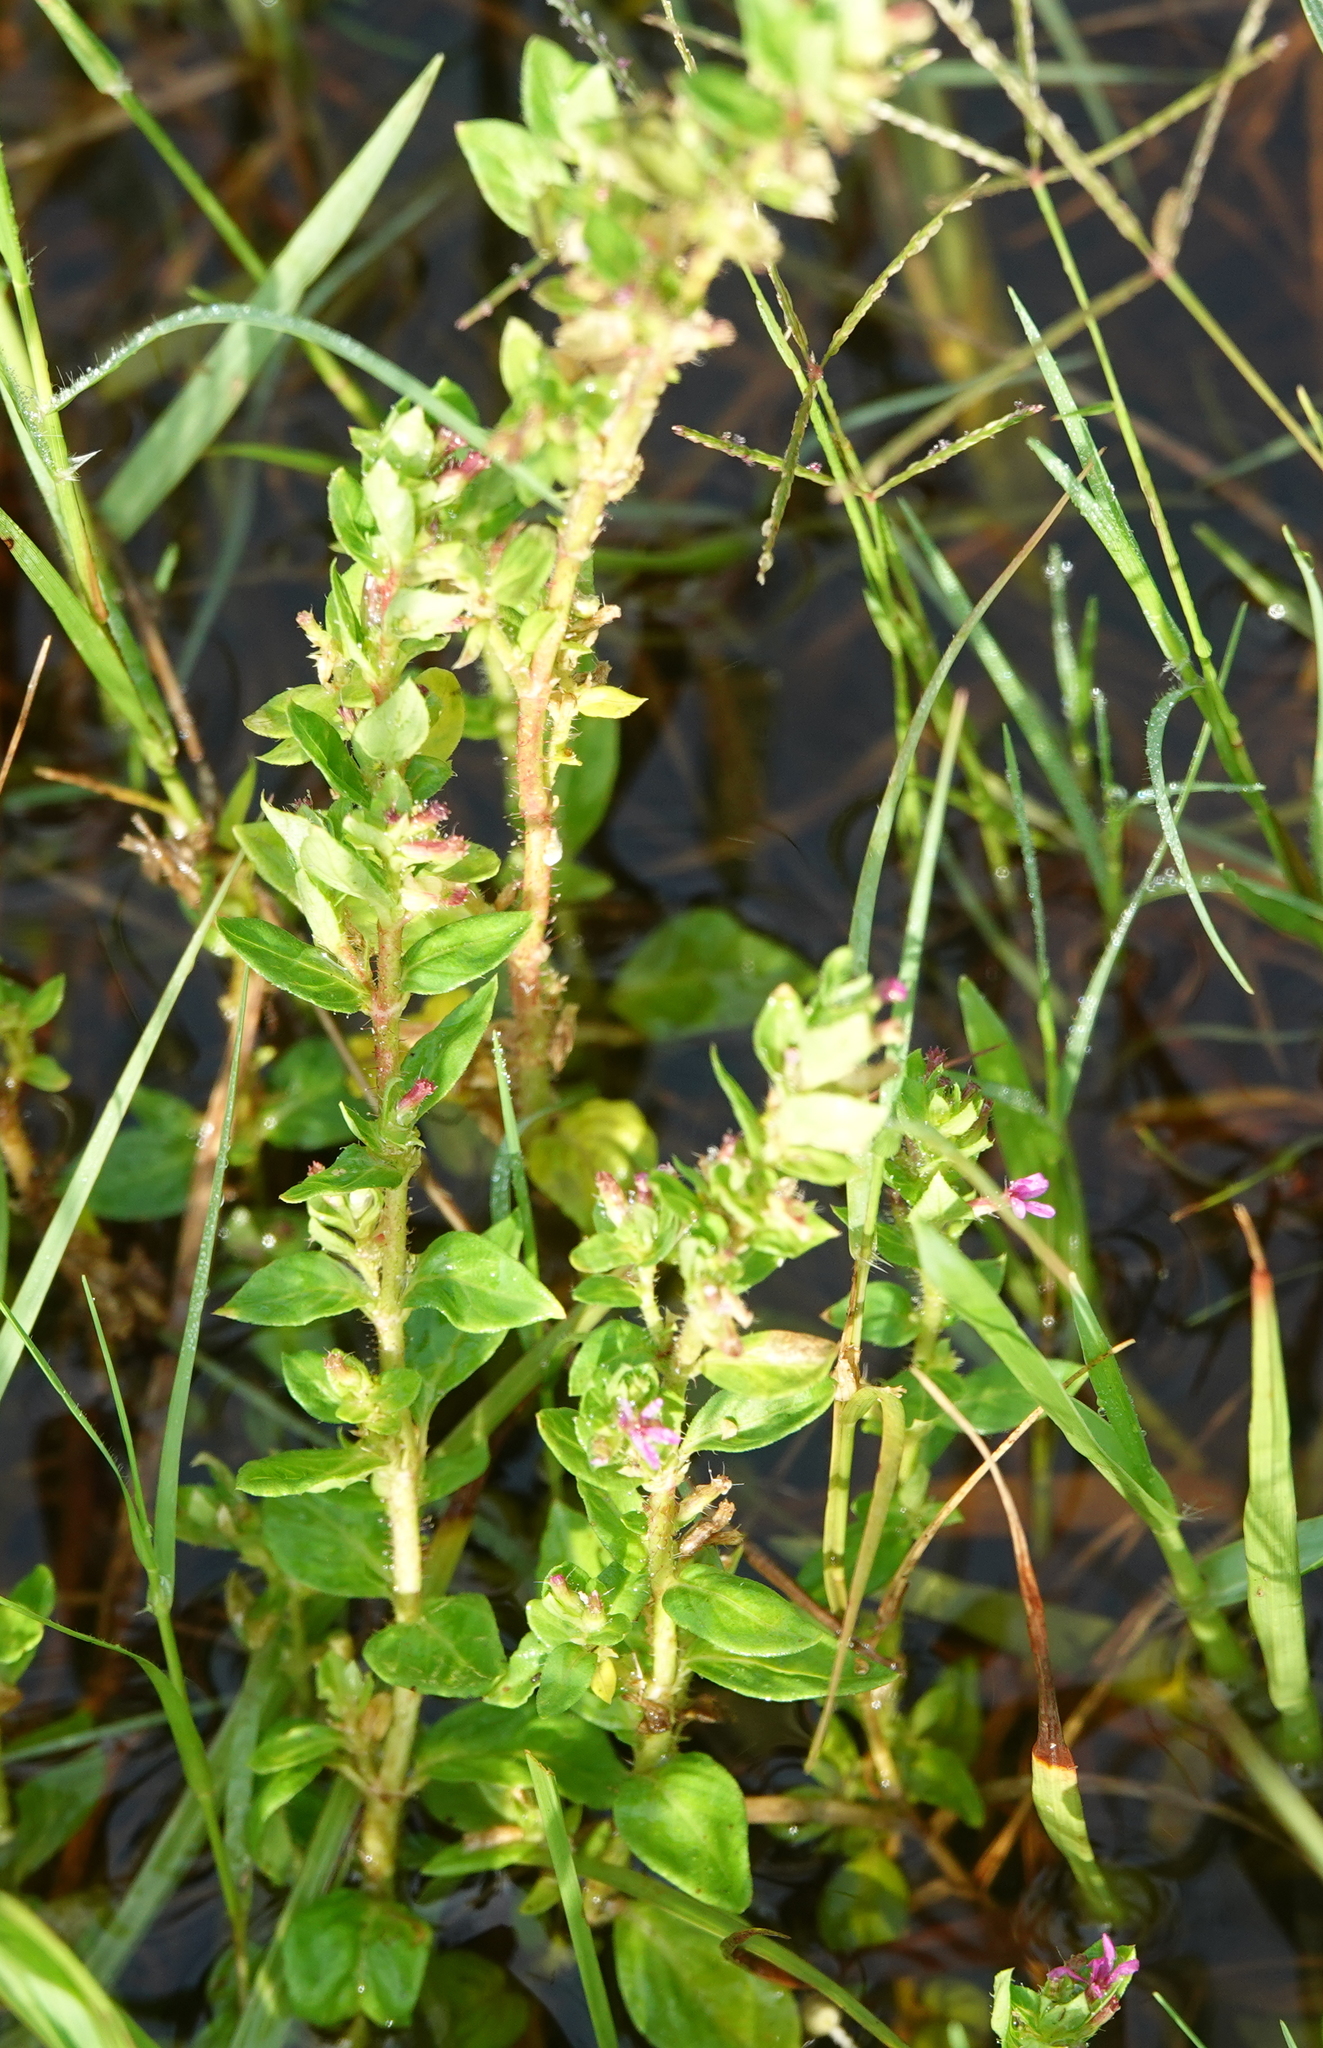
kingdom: Plantae
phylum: Tracheophyta
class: Magnoliopsida
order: Myrtales
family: Lythraceae
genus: Cuphea
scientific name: Cuphea carthagenensis
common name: Colombian waxweed
